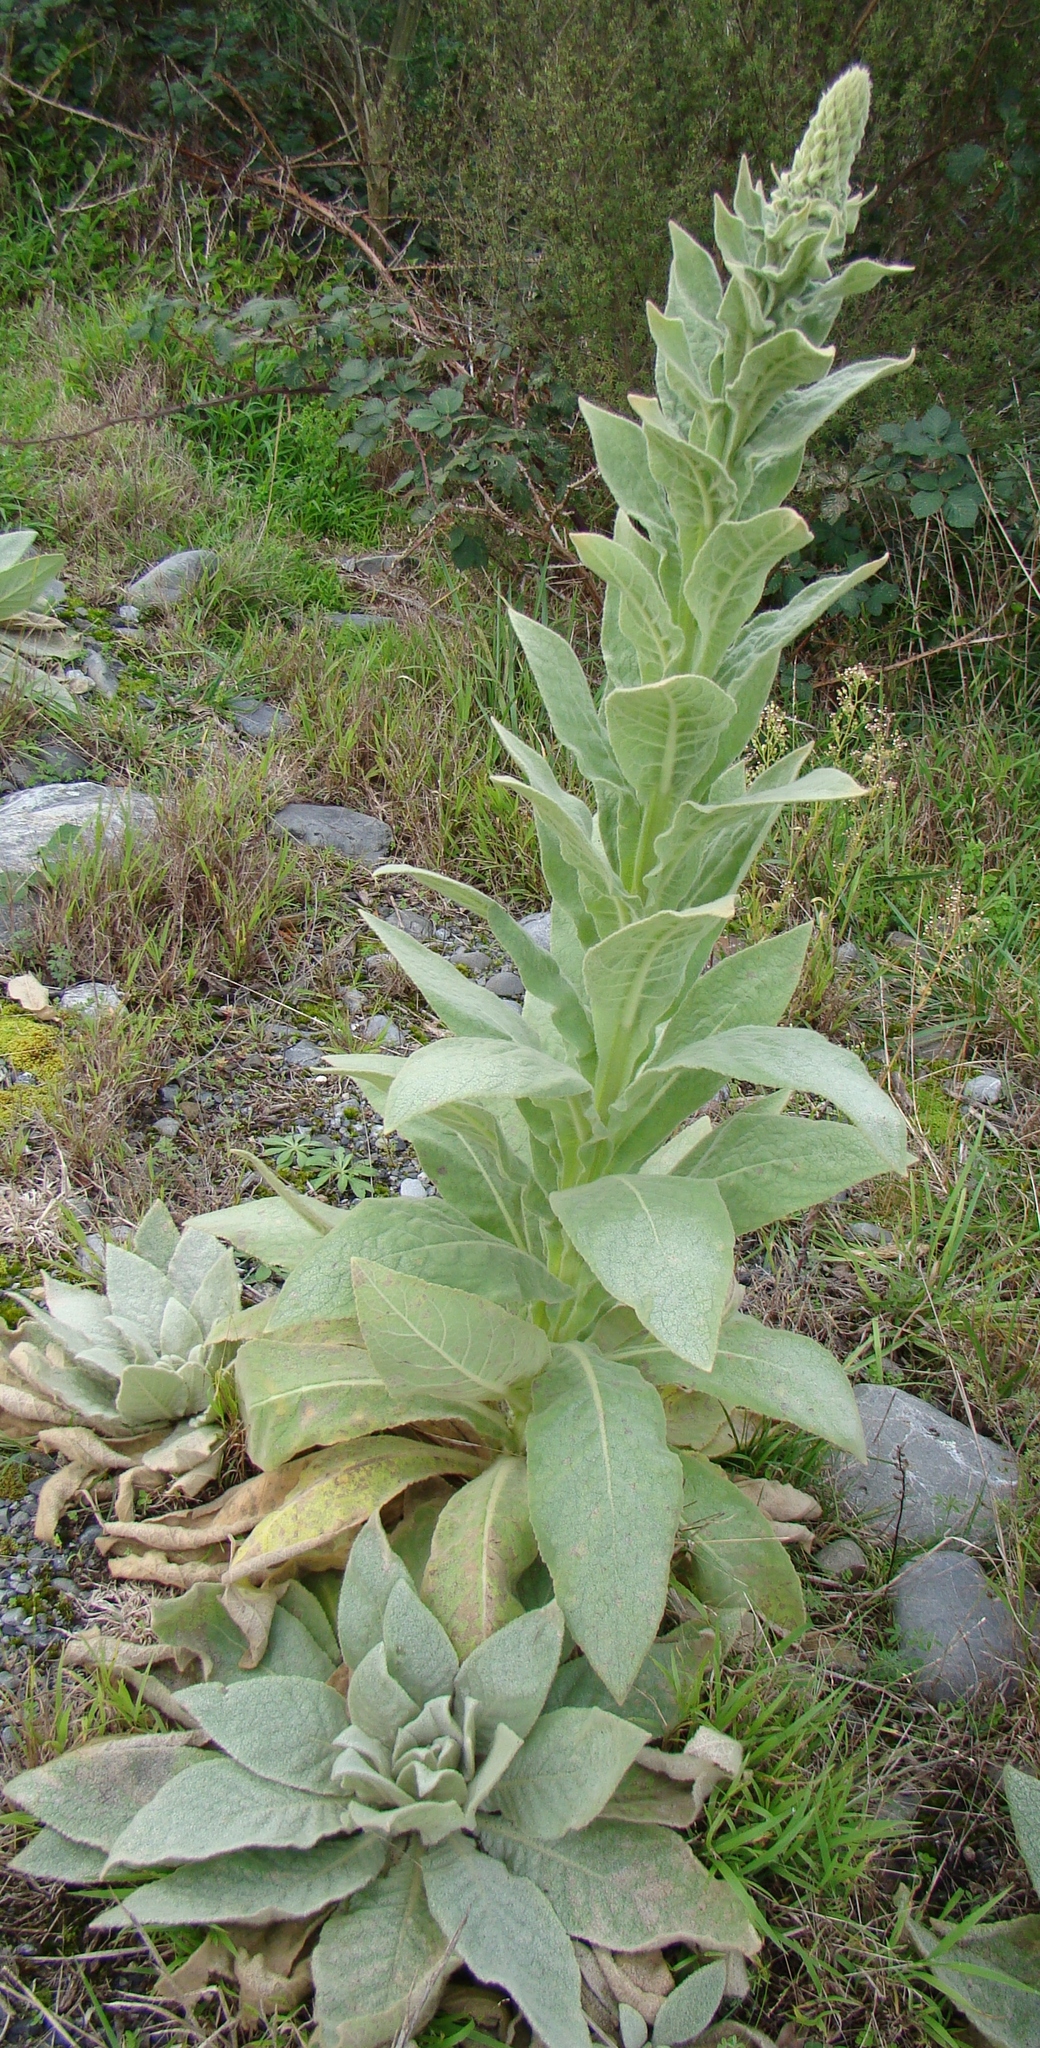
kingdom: Plantae
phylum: Tracheophyta
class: Magnoliopsida
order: Lamiales
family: Scrophulariaceae
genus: Verbascum
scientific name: Verbascum thapsus
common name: Common mullein
